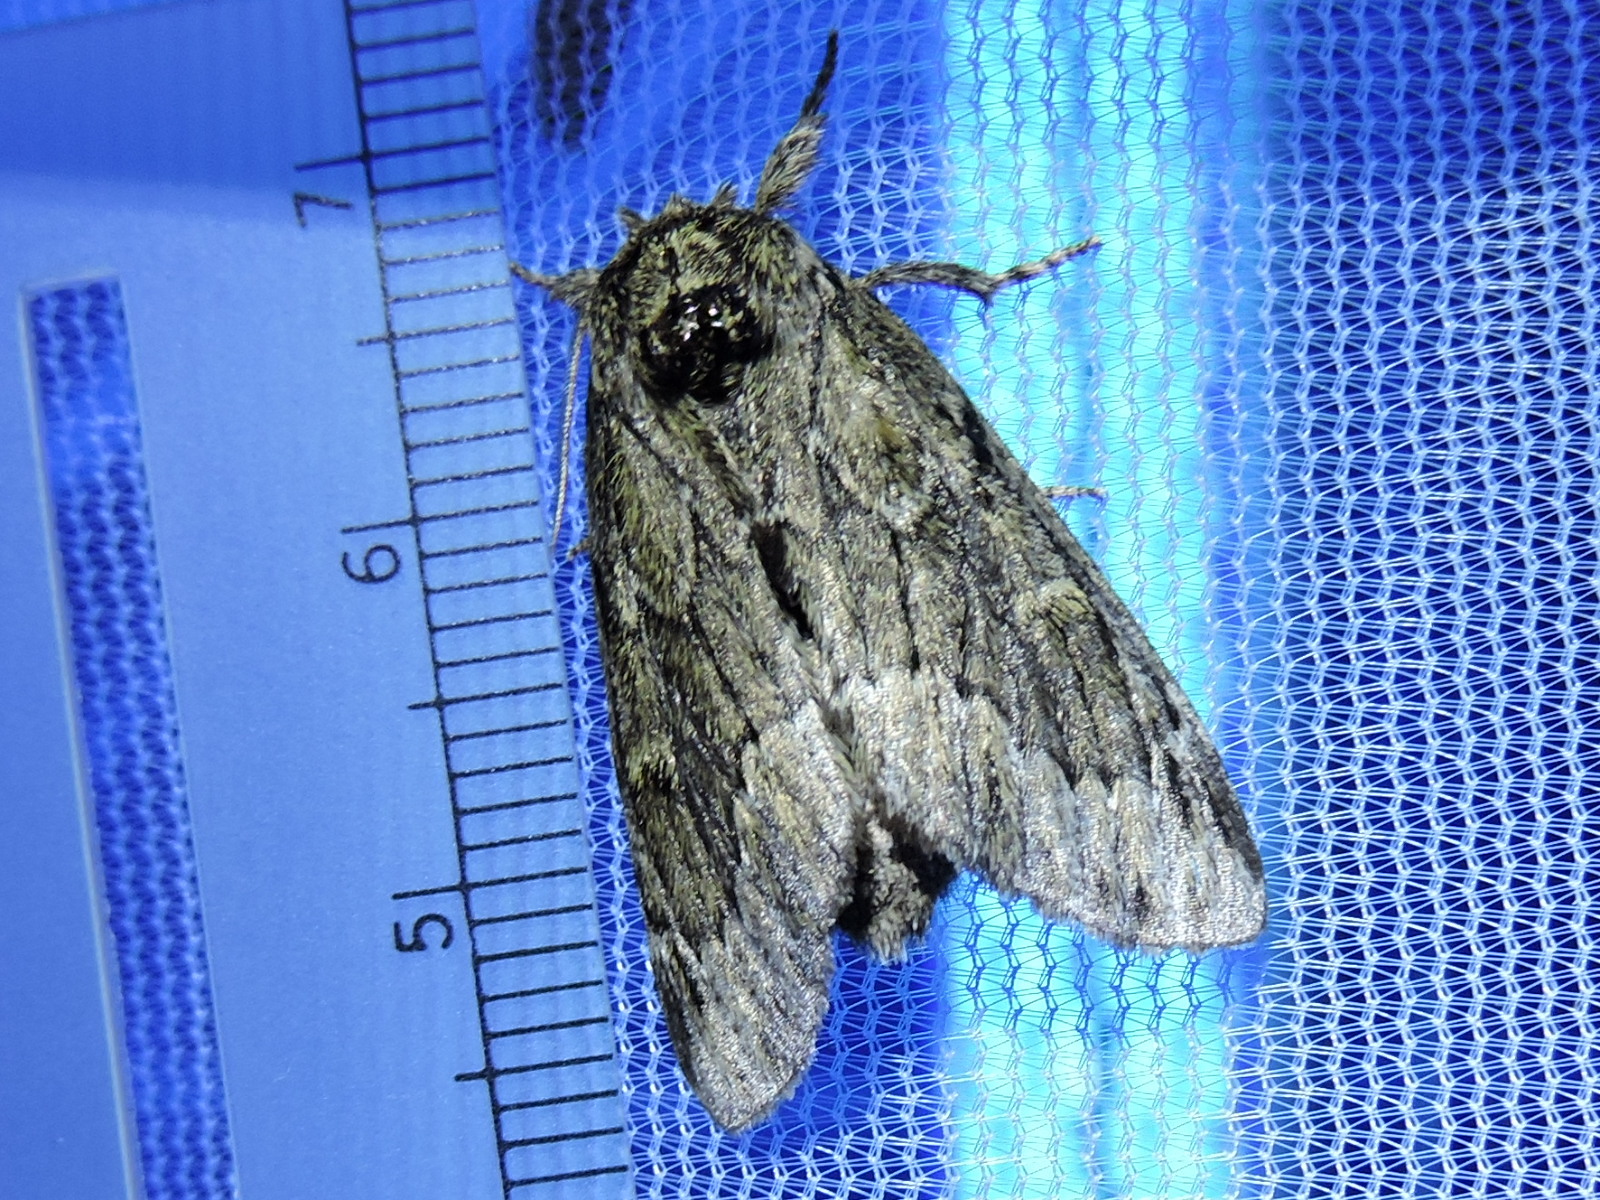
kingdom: Animalia
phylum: Arthropoda
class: Insecta
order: Lepidoptera
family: Notodontidae
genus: Paraeschra
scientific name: Paraeschra georgica
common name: Georgian prominent
